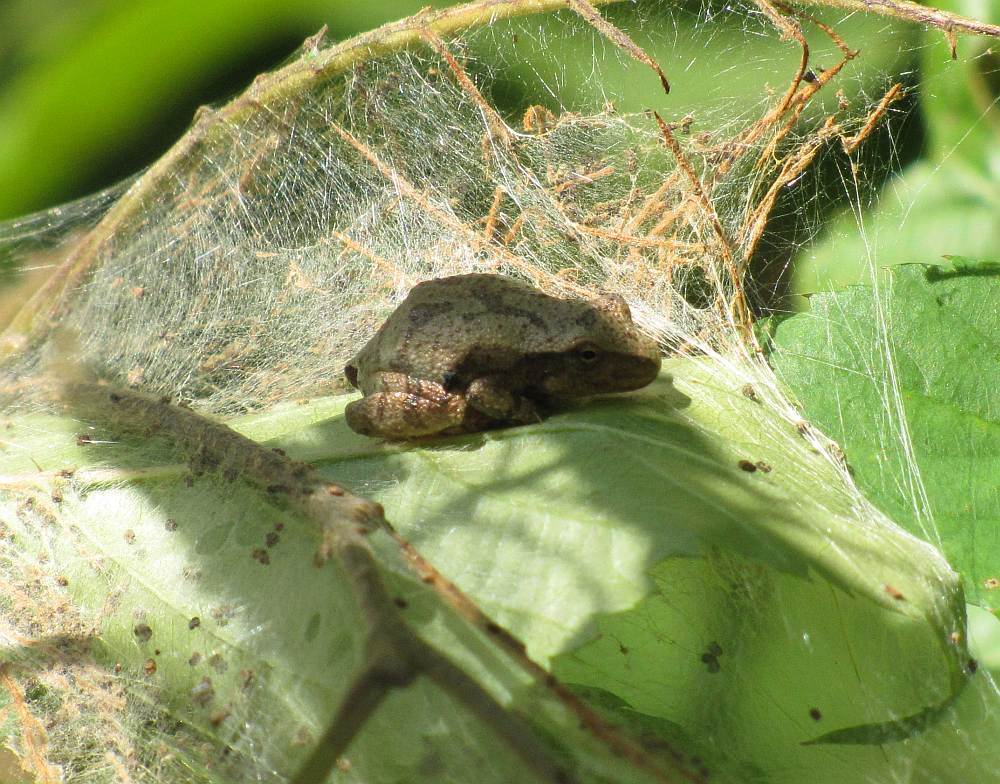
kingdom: Animalia
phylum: Chordata
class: Amphibia
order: Anura
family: Hylidae
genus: Pseudacris
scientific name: Pseudacris crucifer
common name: Spring peeper
